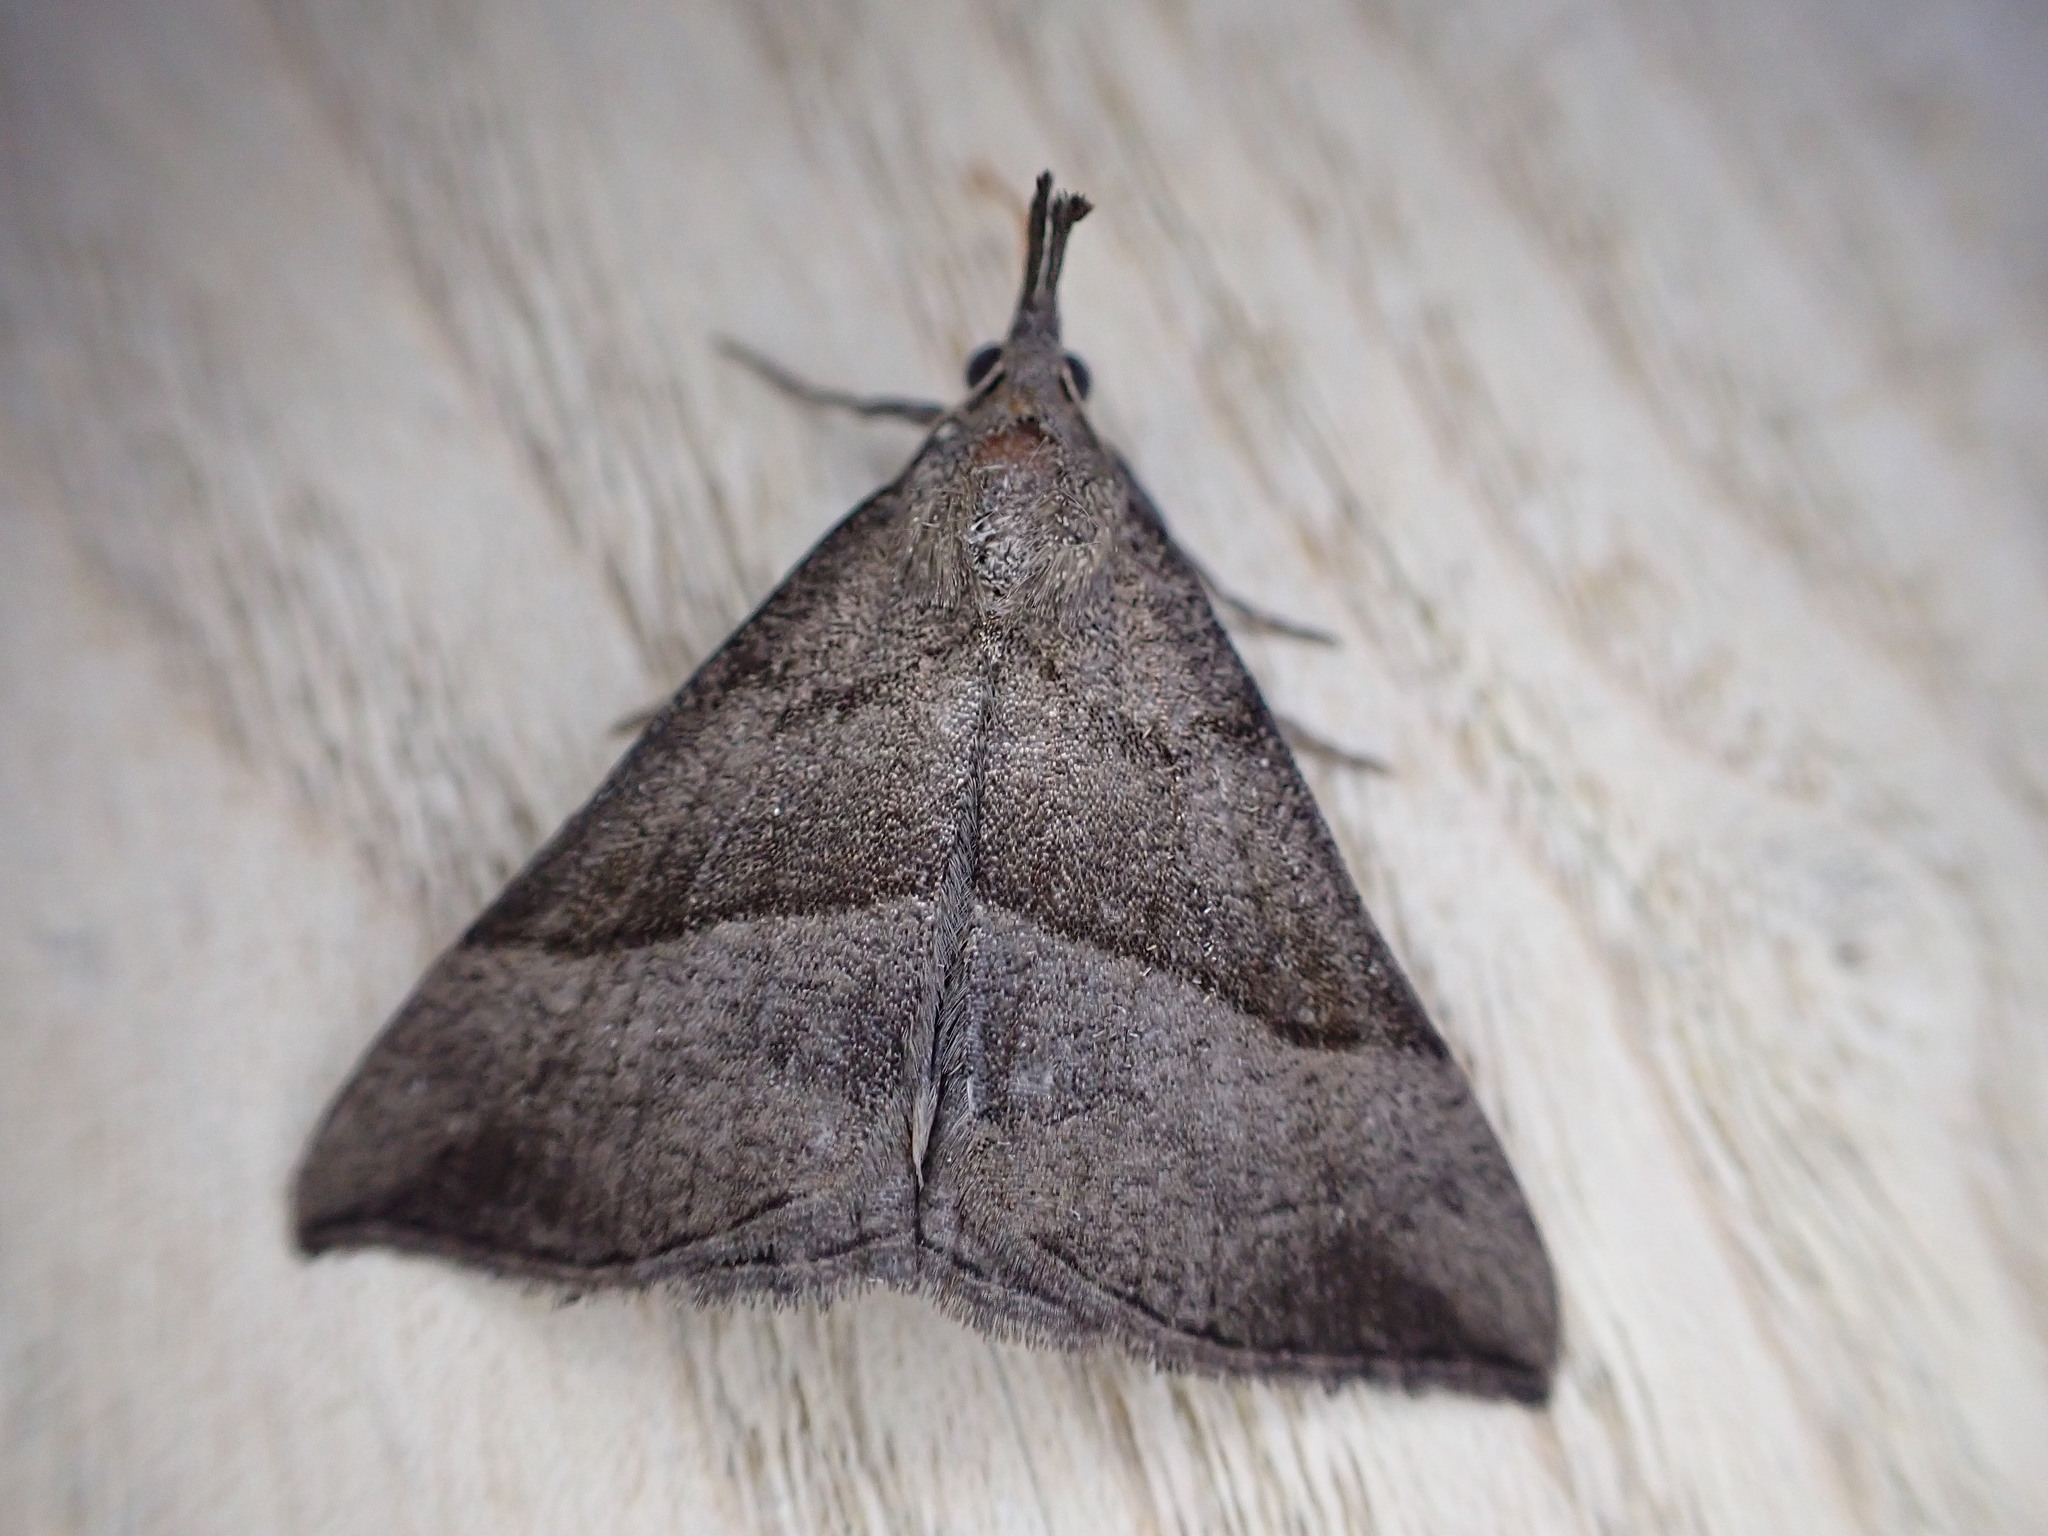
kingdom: Animalia
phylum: Arthropoda
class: Insecta
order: Lepidoptera
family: Erebidae
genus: Hypena
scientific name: Hypena proboscidalis
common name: Snout
